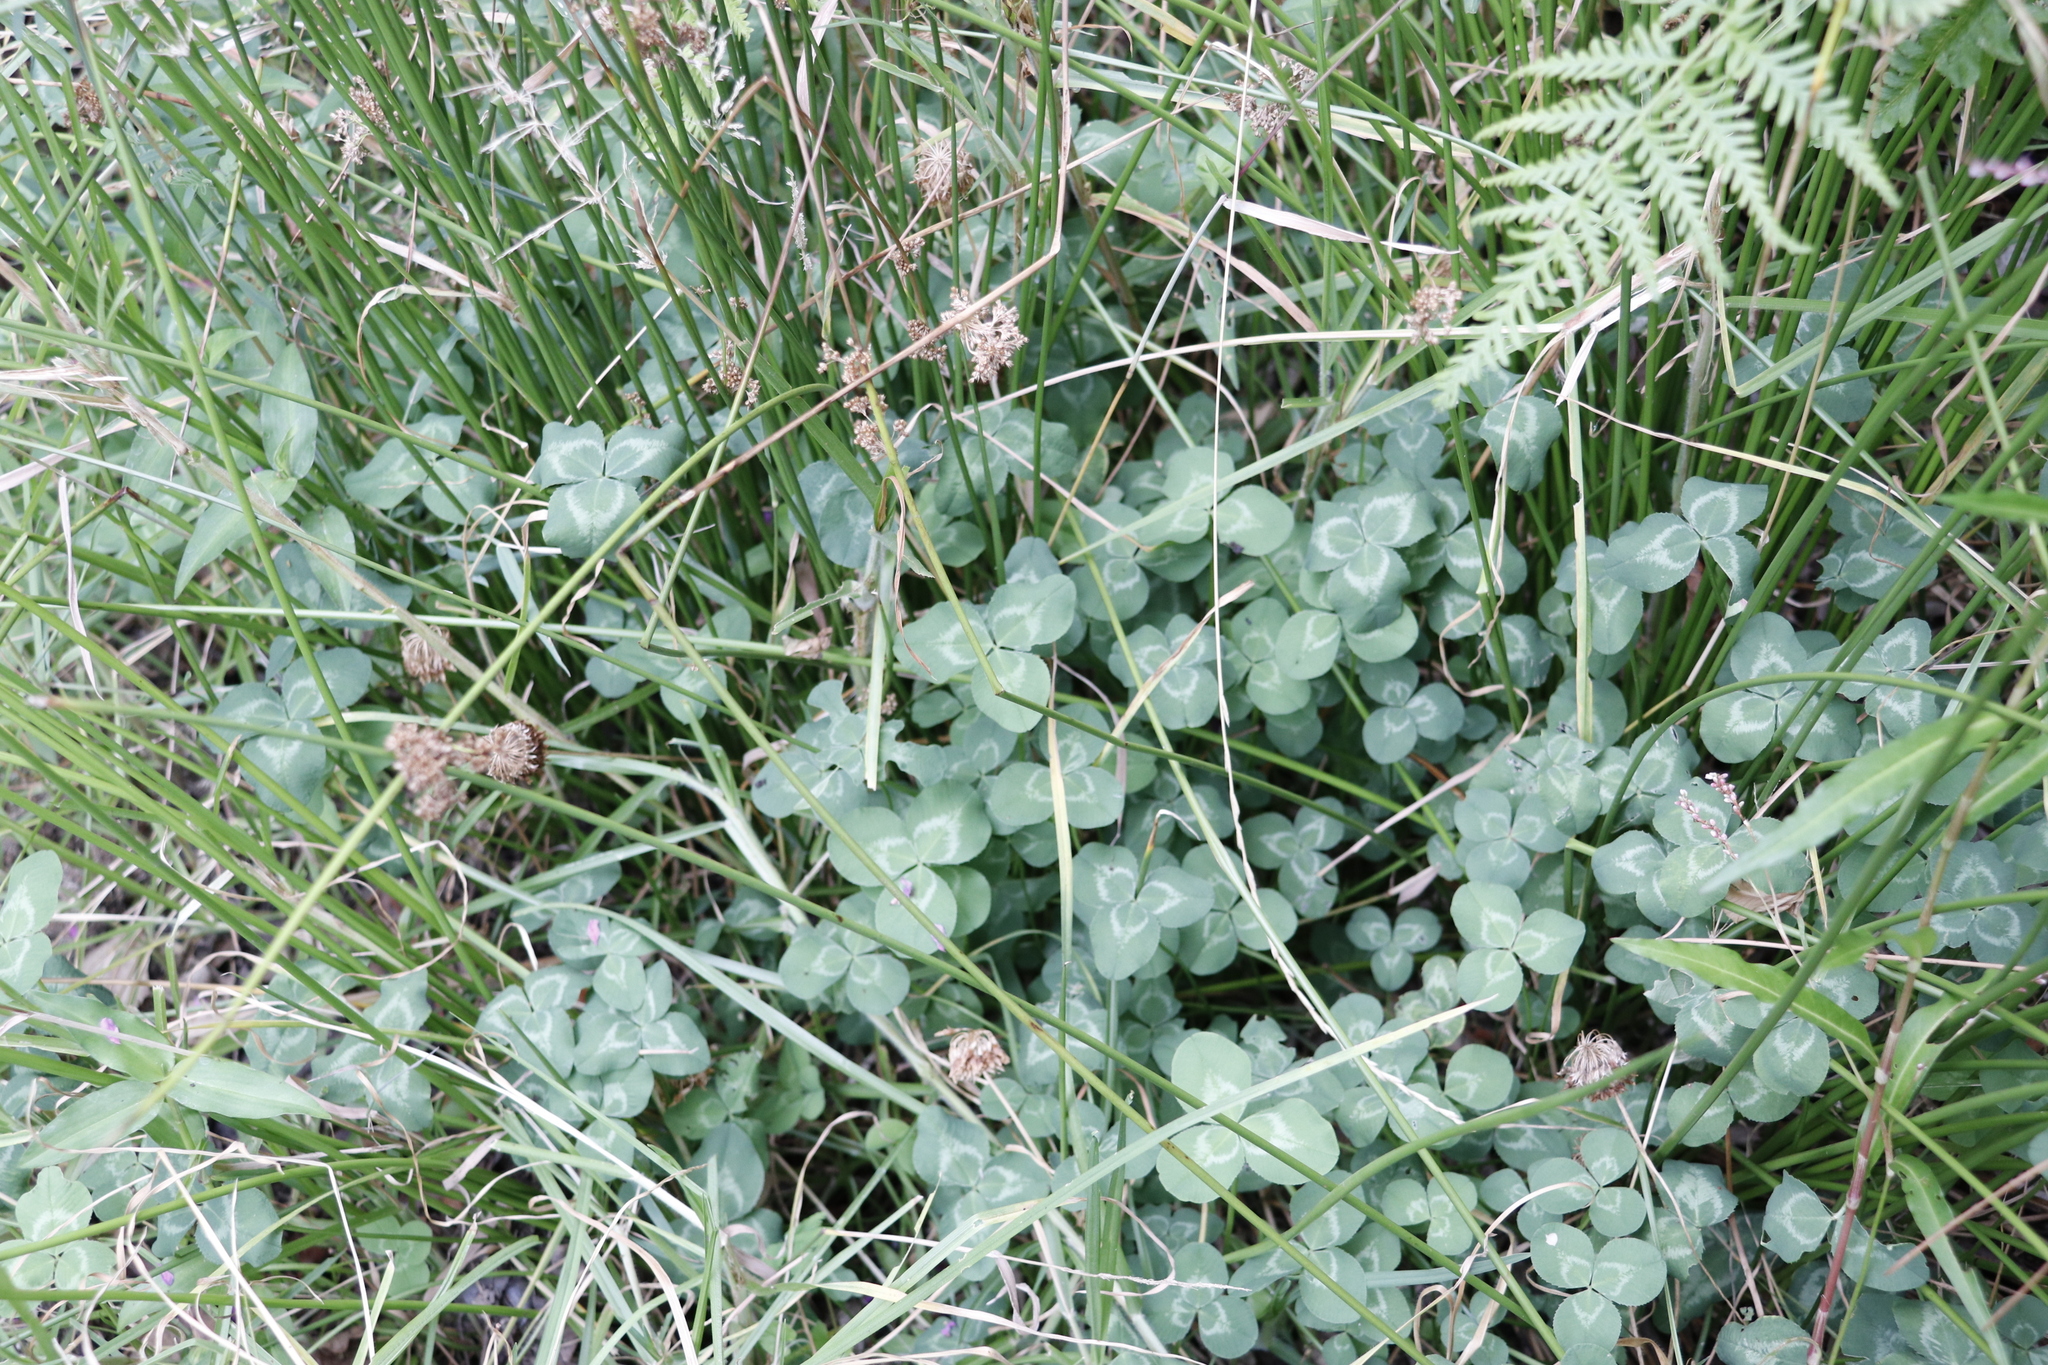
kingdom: Plantae
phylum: Tracheophyta
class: Magnoliopsida
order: Fabales
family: Fabaceae
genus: Trifolium
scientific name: Trifolium repens
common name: White clover
